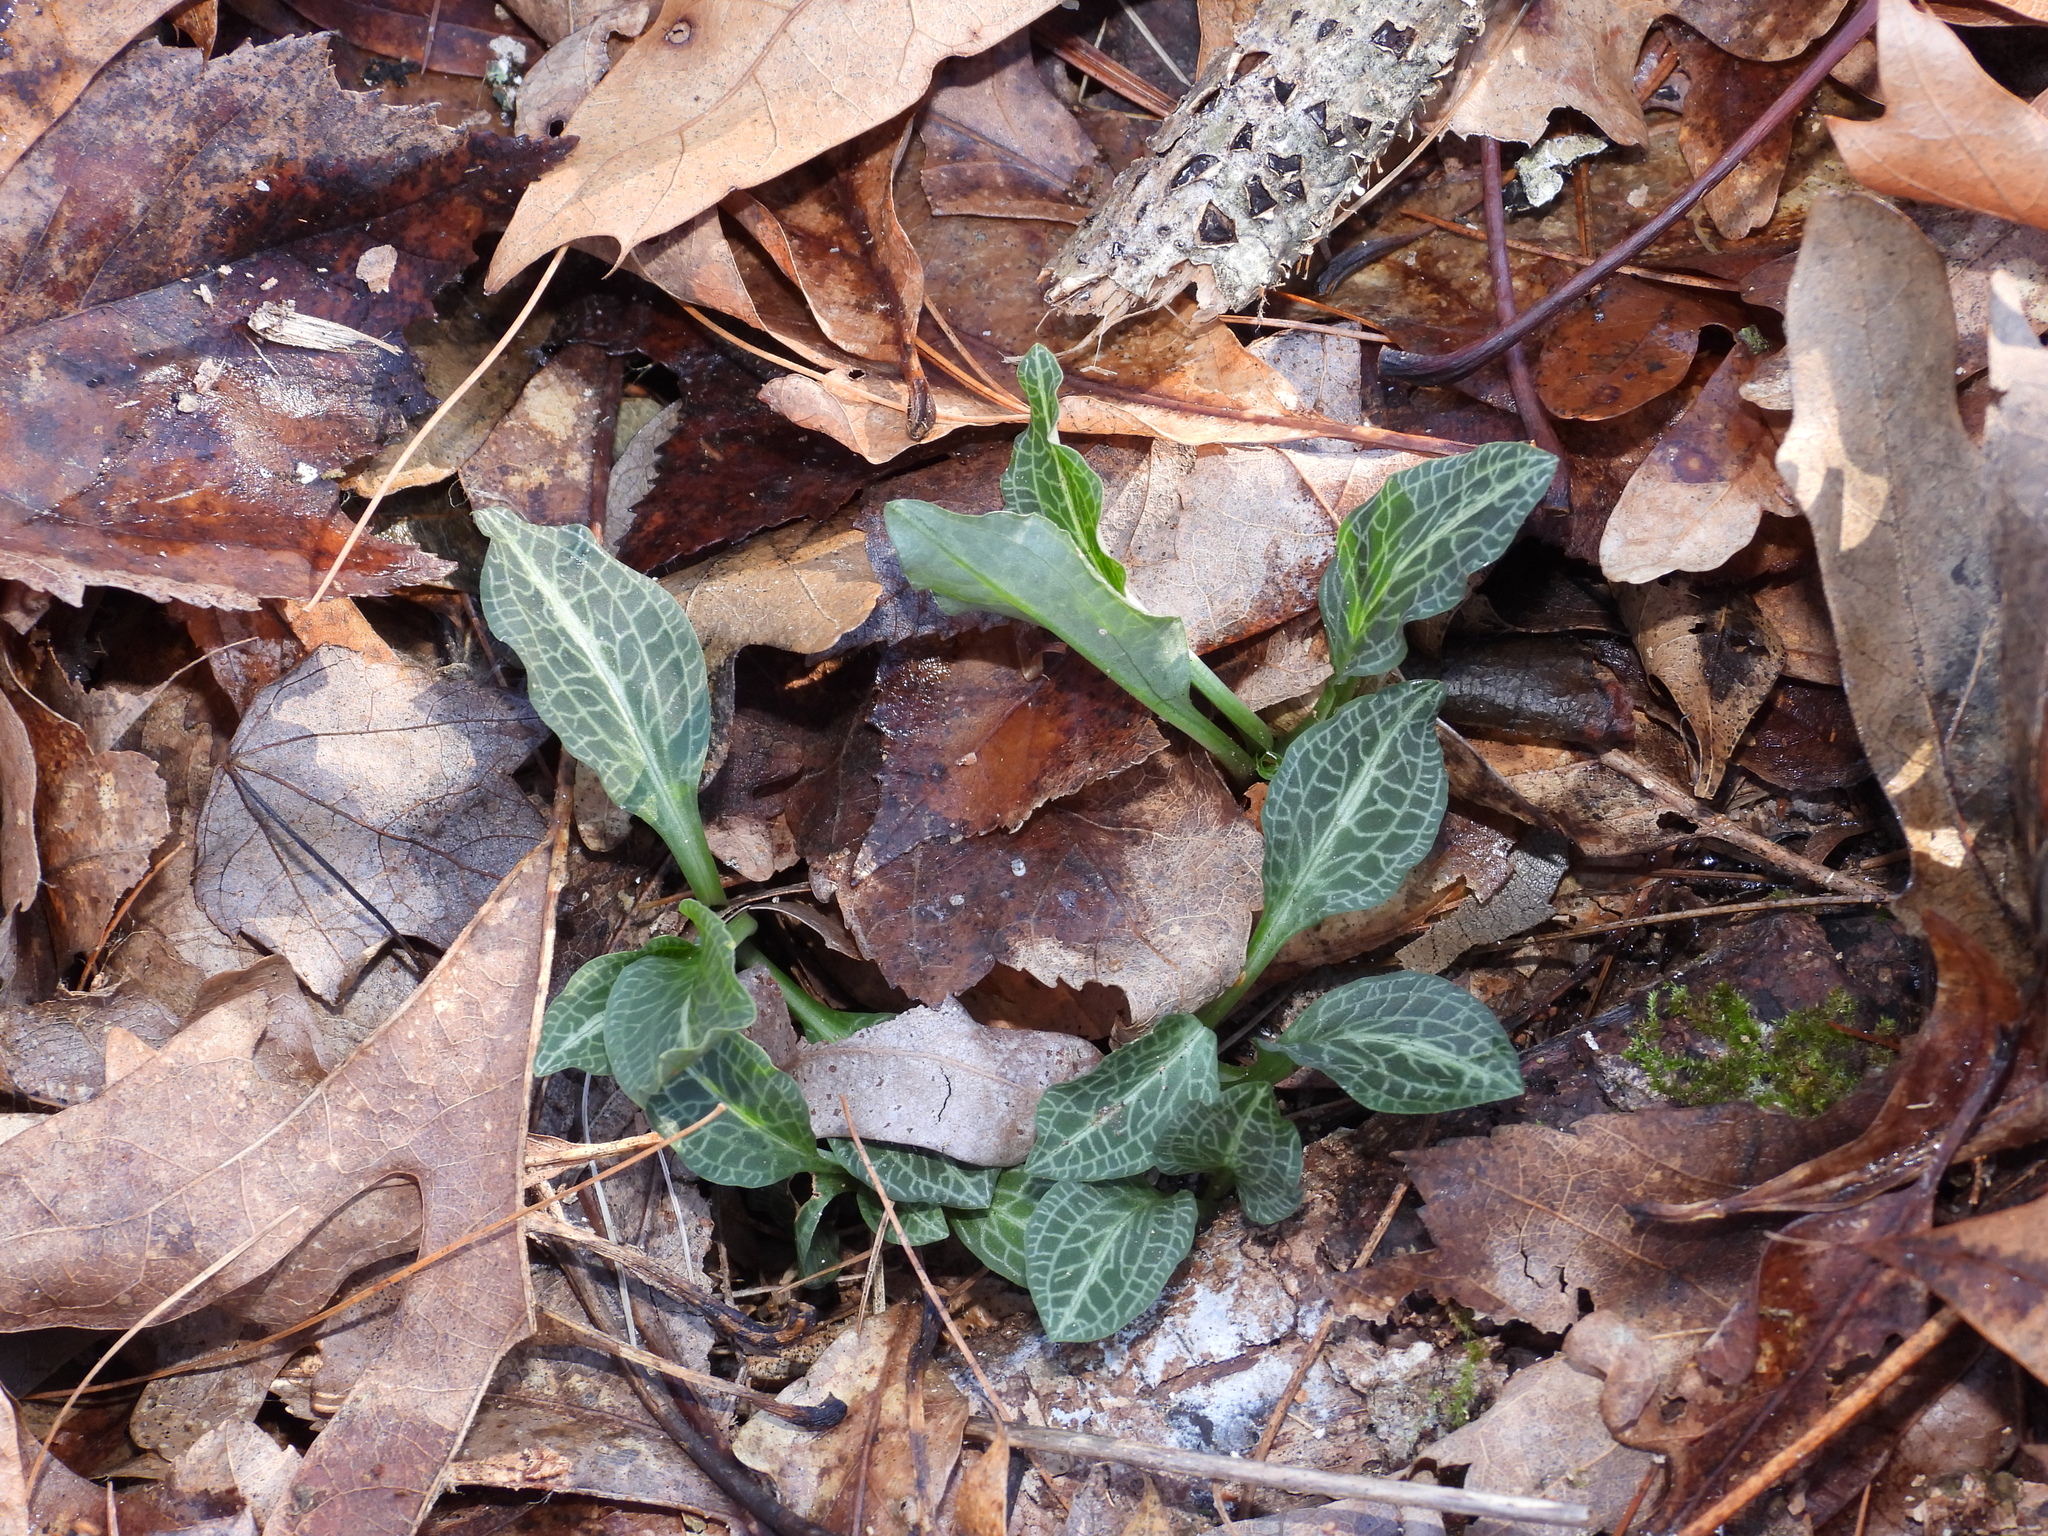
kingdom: Plantae
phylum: Tracheophyta
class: Liliopsida
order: Asparagales
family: Orchidaceae
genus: Goodyera
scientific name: Goodyera pubescens
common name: Downy rattlesnake-plantain
